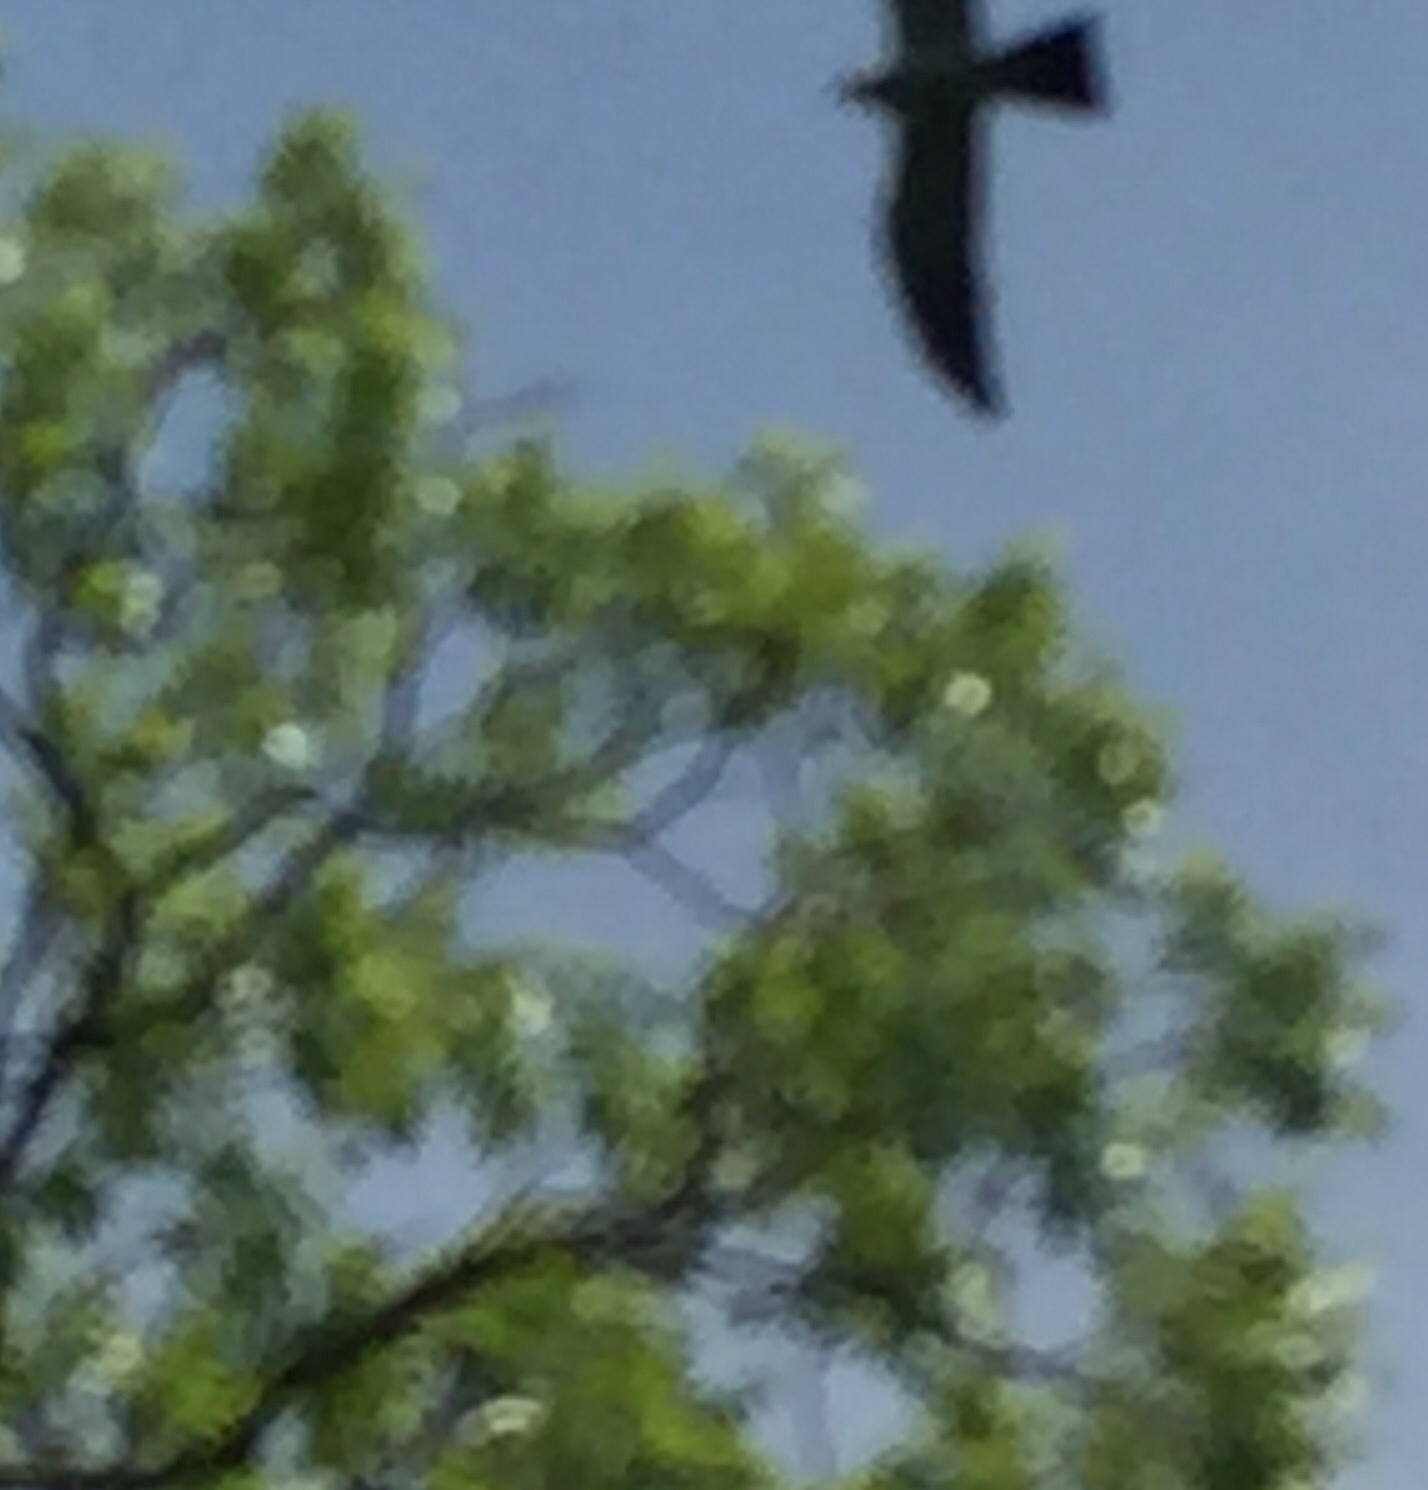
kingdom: Animalia
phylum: Chordata
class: Aves
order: Accipitriformes
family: Accipitridae
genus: Ictinia
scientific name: Ictinia mississippiensis
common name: Mississippi kite
